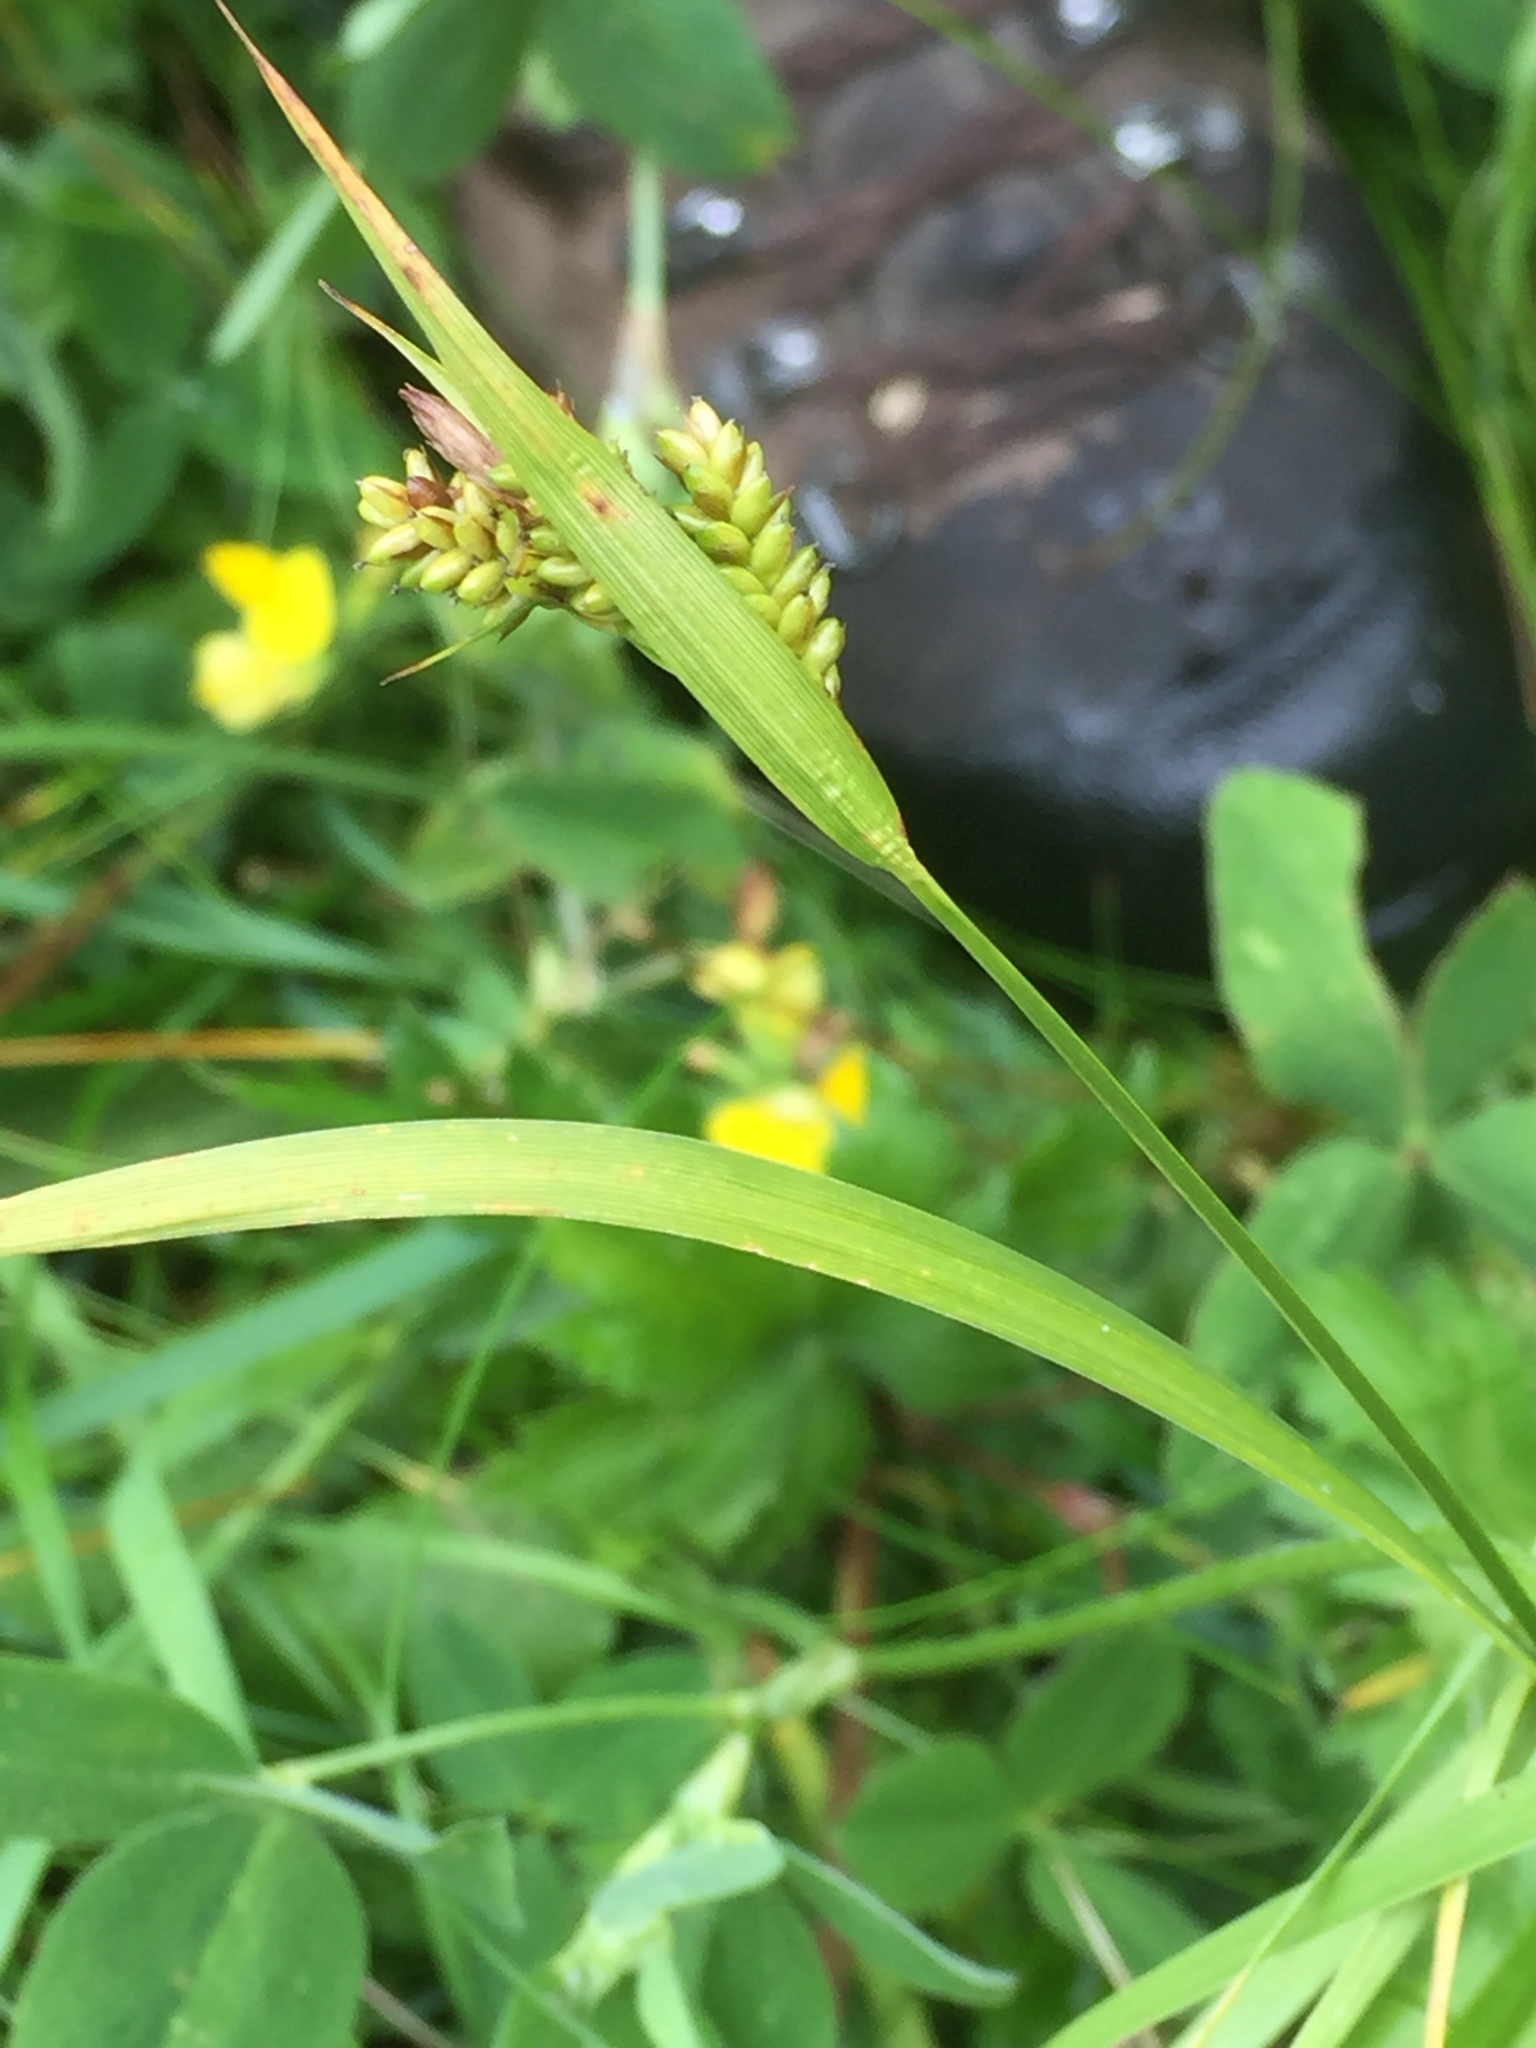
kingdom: Plantae
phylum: Tracheophyta
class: Liliopsida
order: Poales
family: Cyperaceae
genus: Carex
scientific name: Carex pallescens
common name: Pale sedge
